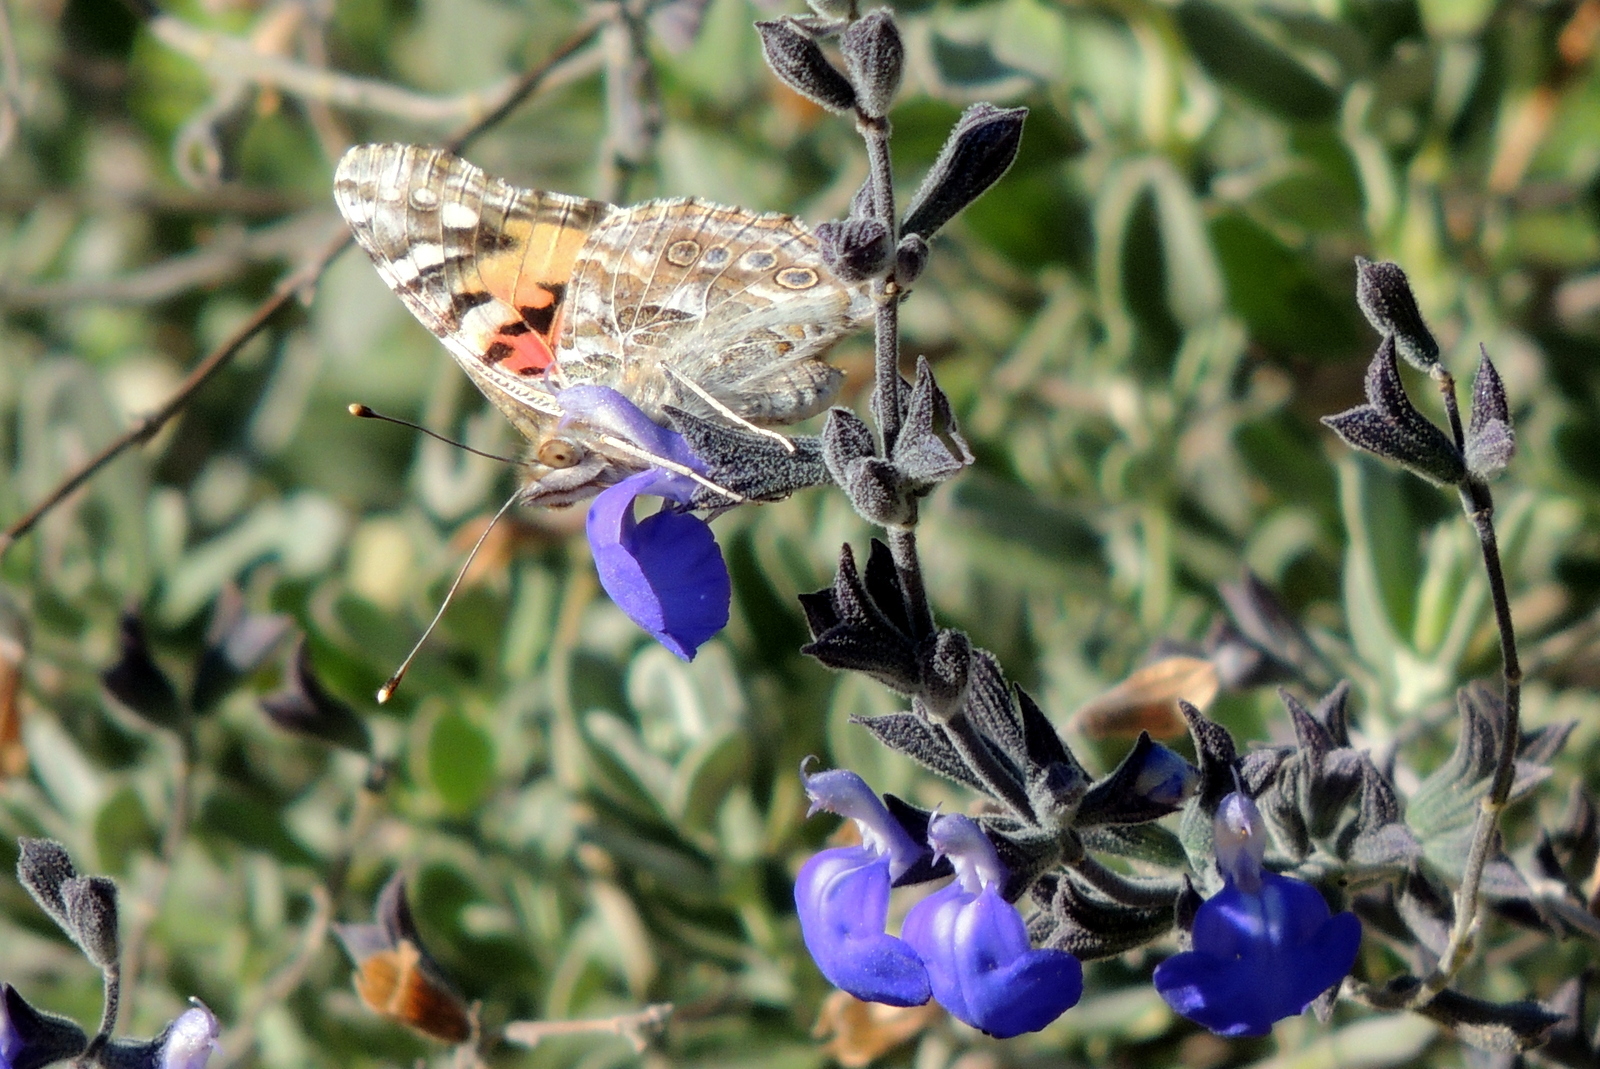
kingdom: Animalia
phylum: Arthropoda
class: Insecta
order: Lepidoptera
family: Nymphalidae
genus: Vanessa
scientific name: Vanessa cardui
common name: Painted lady
